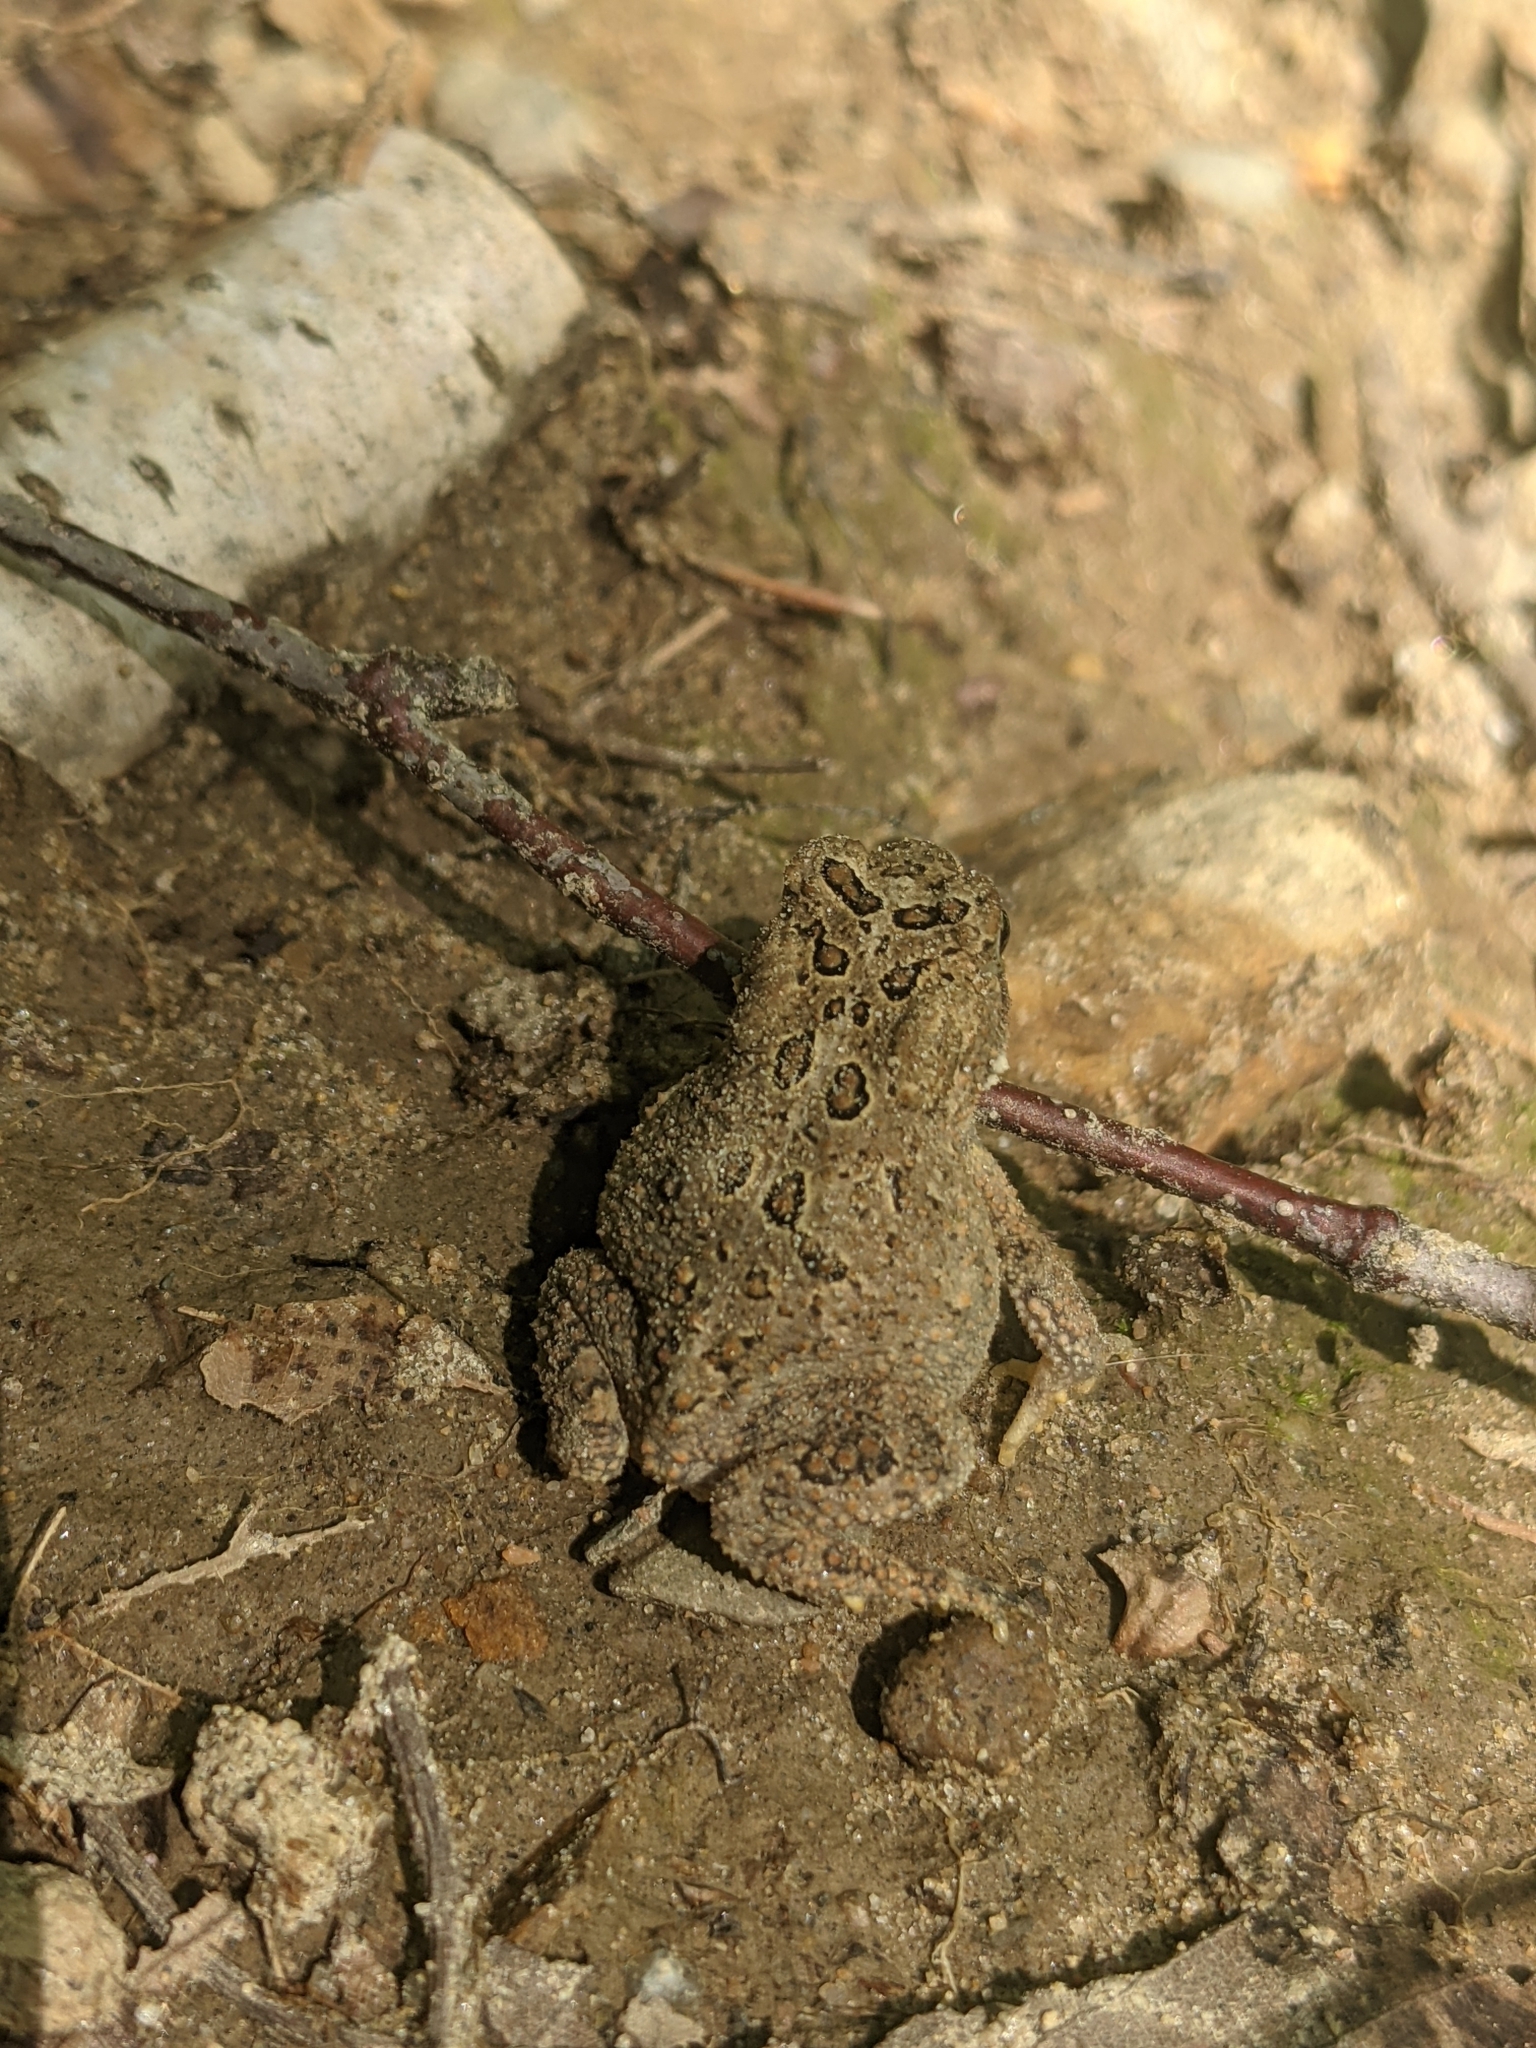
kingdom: Animalia
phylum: Chordata
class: Amphibia
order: Anura
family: Bufonidae
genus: Anaxyrus
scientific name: Anaxyrus americanus
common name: American toad
